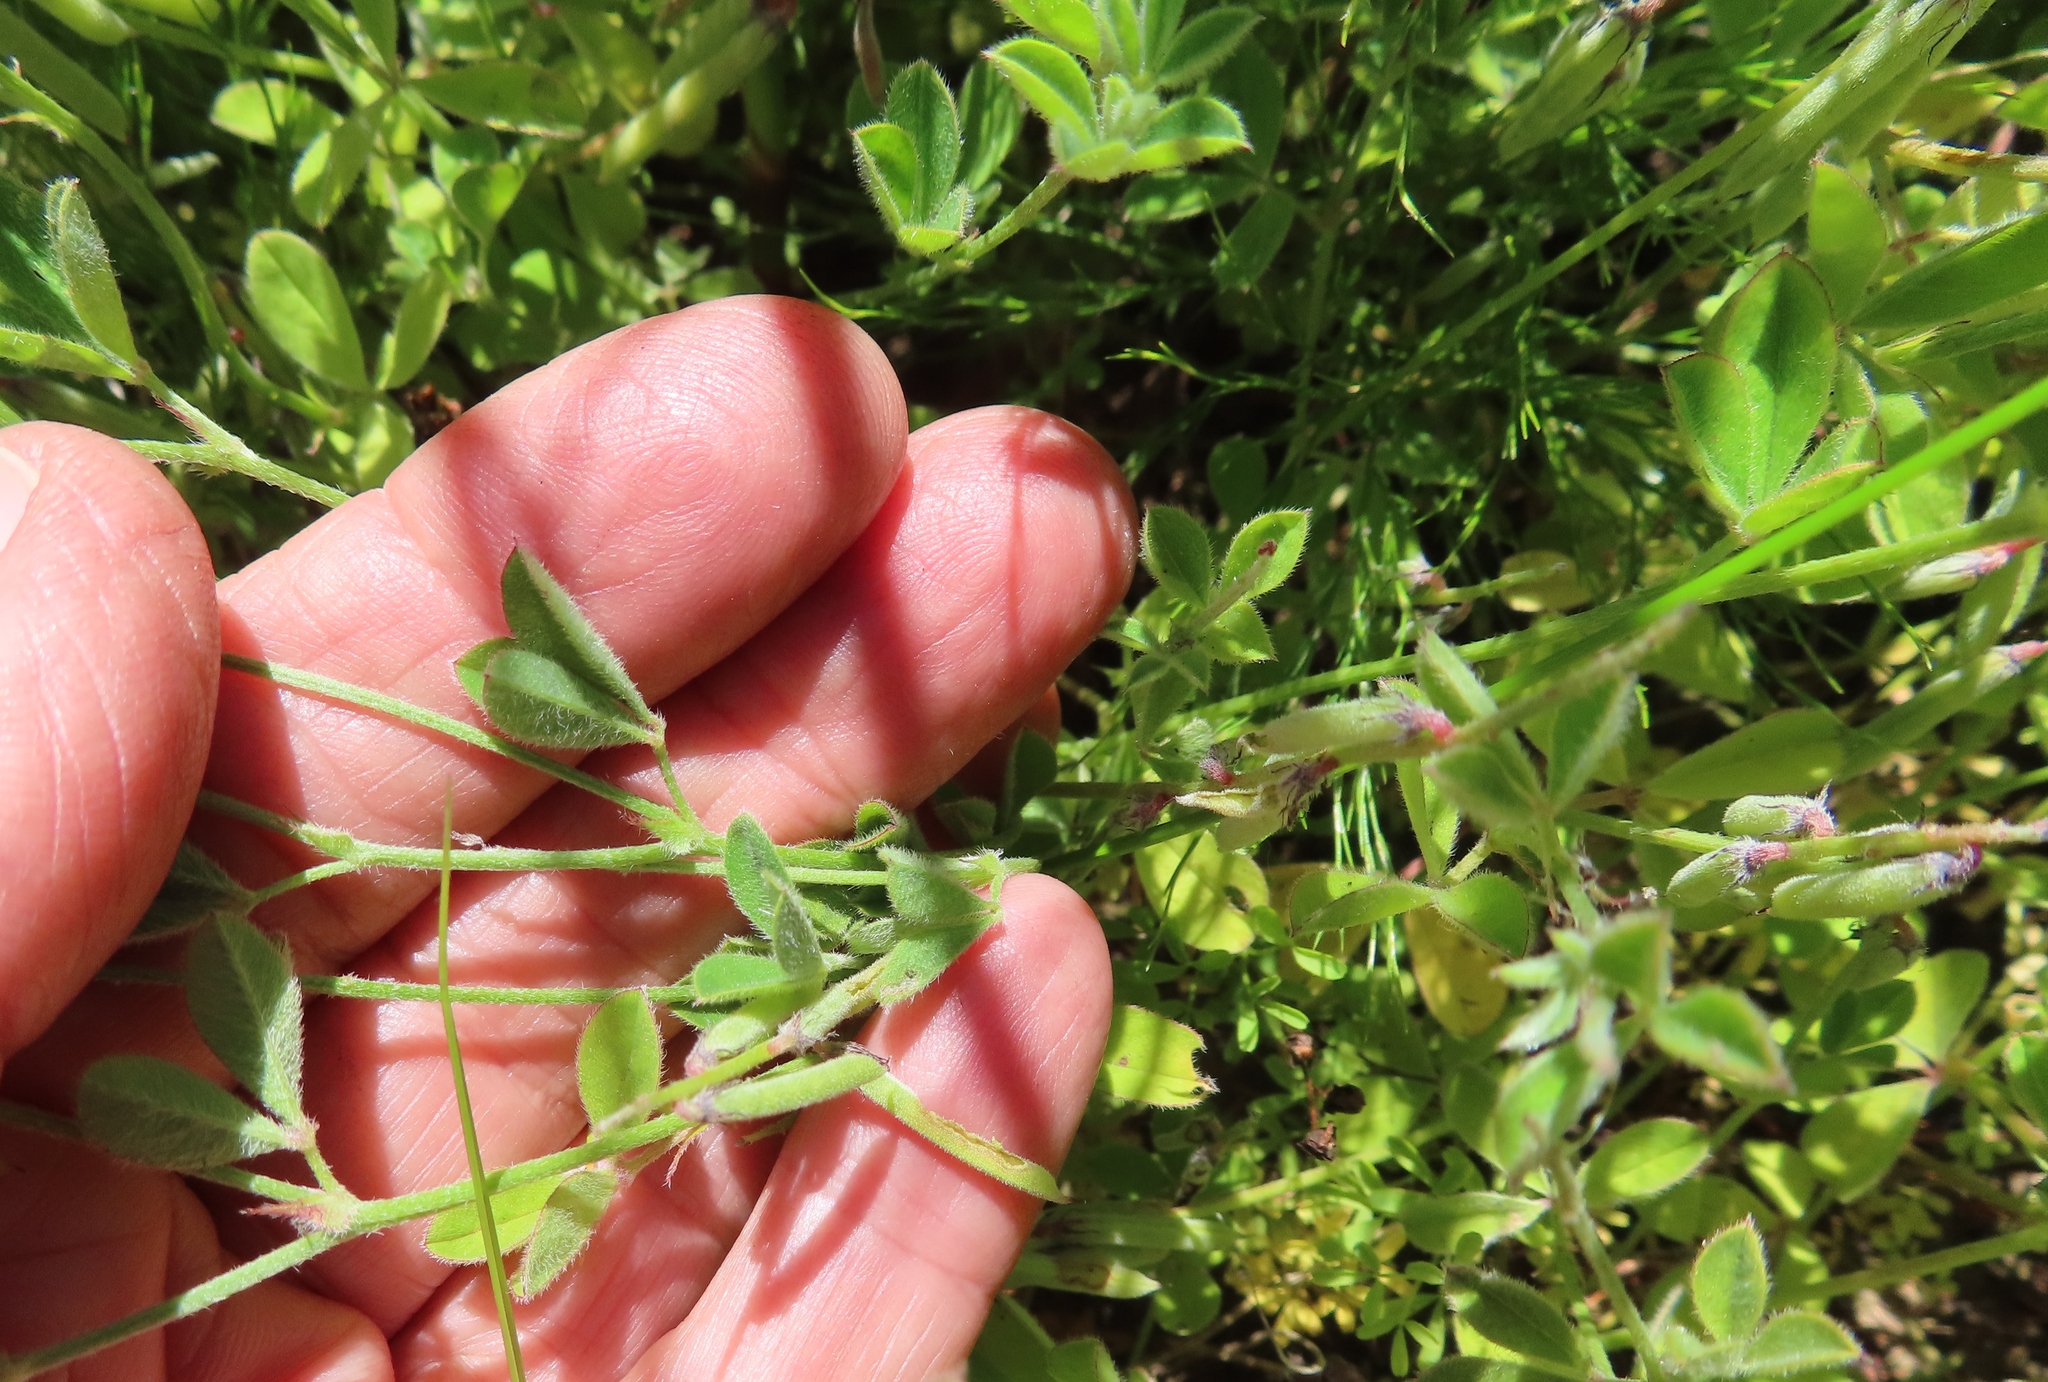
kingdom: Plantae
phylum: Tracheophyta
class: Magnoliopsida
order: Fabales
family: Fabaceae
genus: Indigofera
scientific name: Indigofera incana
